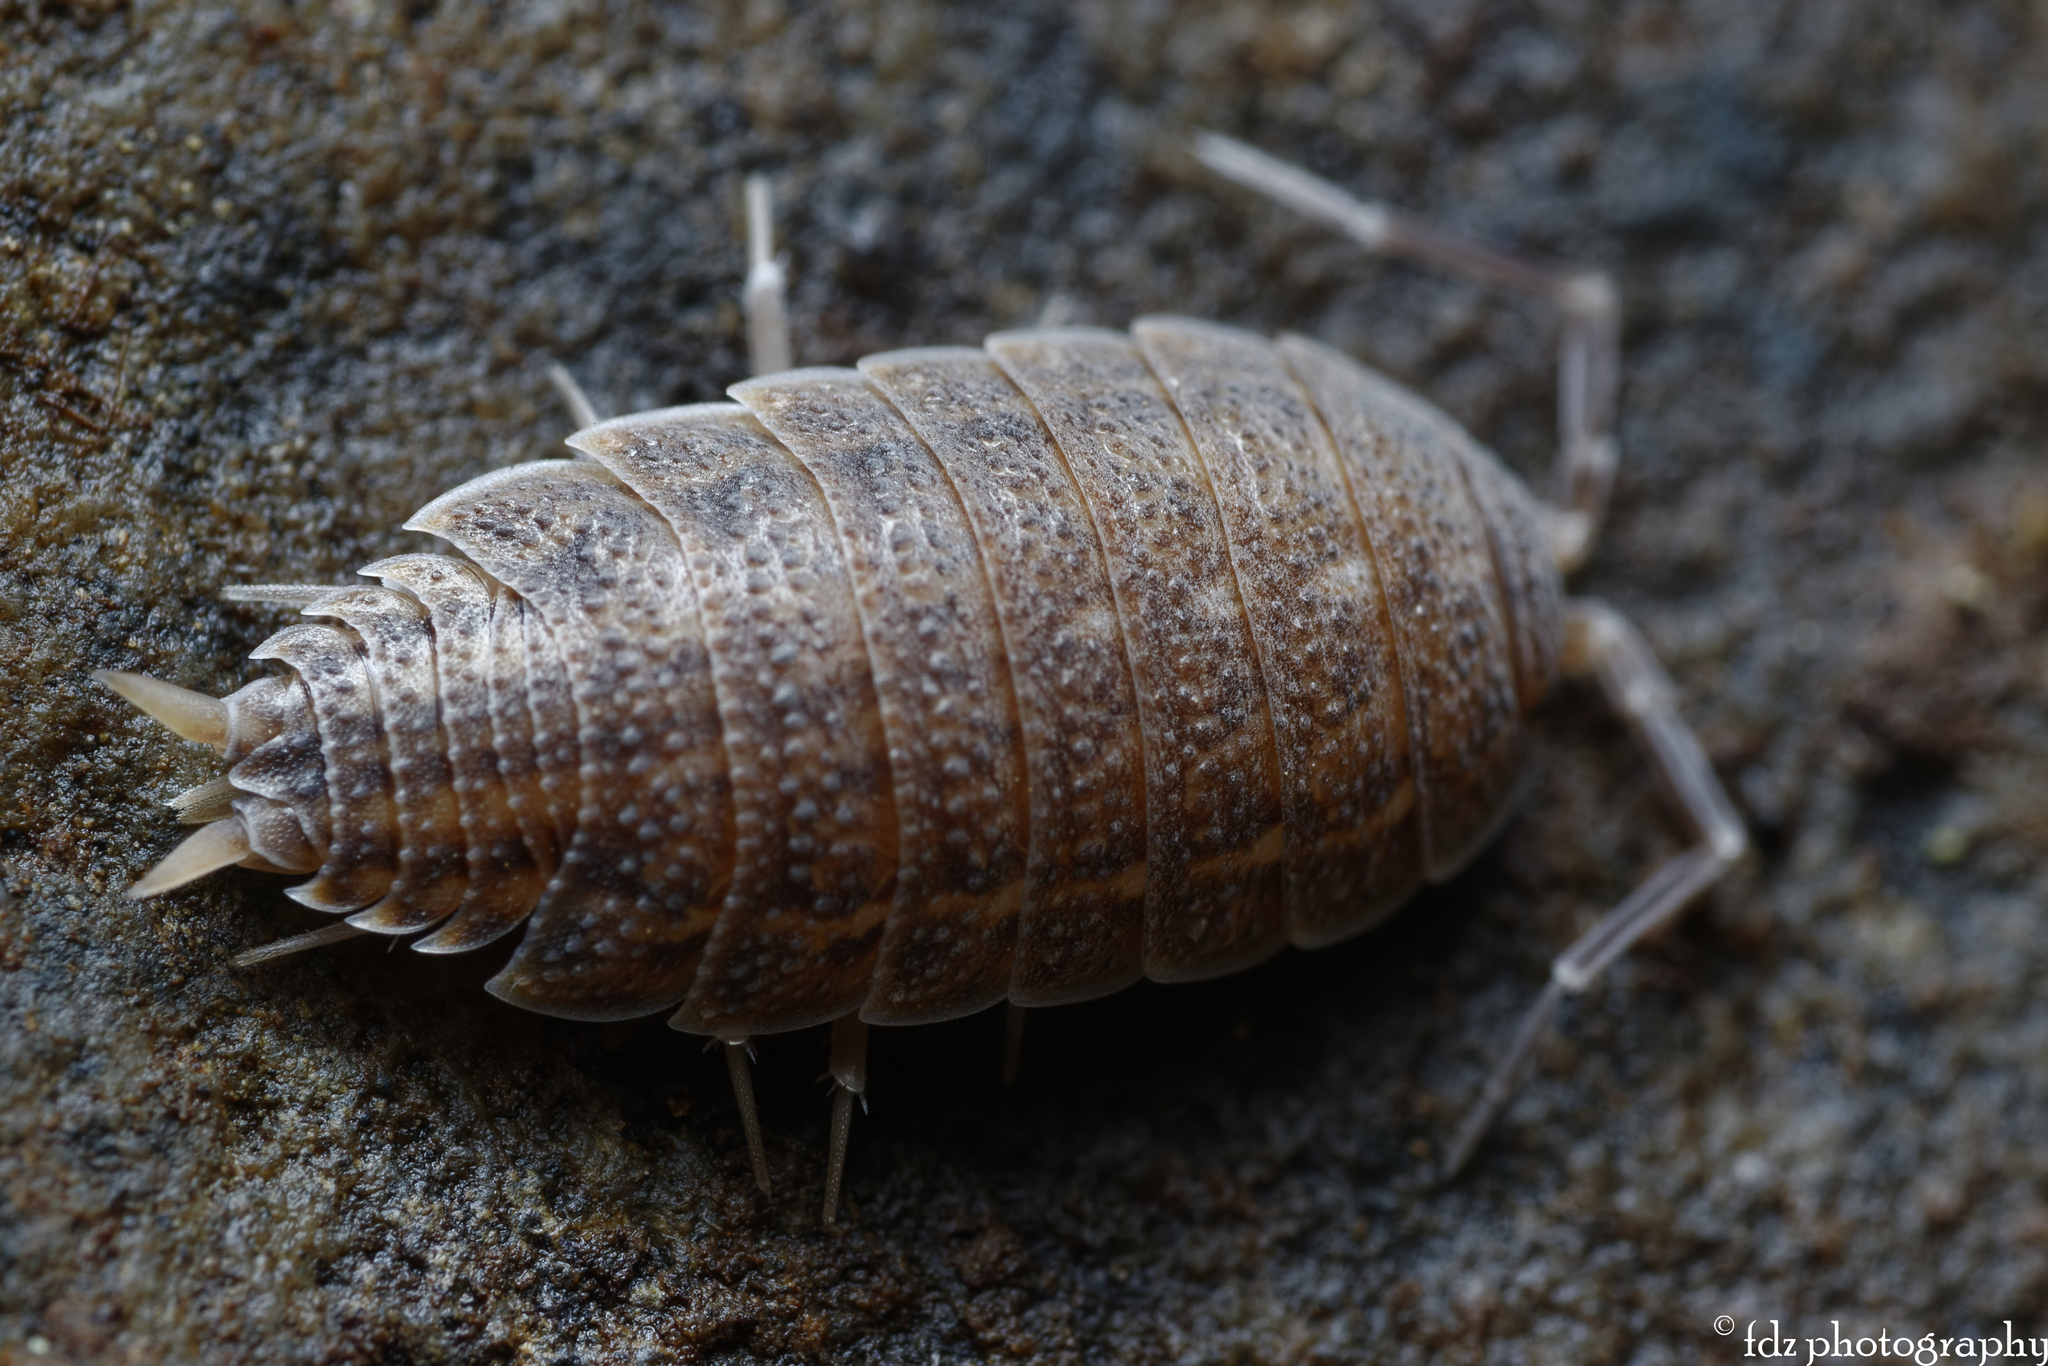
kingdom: Animalia
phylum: Arthropoda
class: Malacostraca
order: Isopoda
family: Porcellionidae
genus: Porcellionides
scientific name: Porcellionides sexfasciatus
